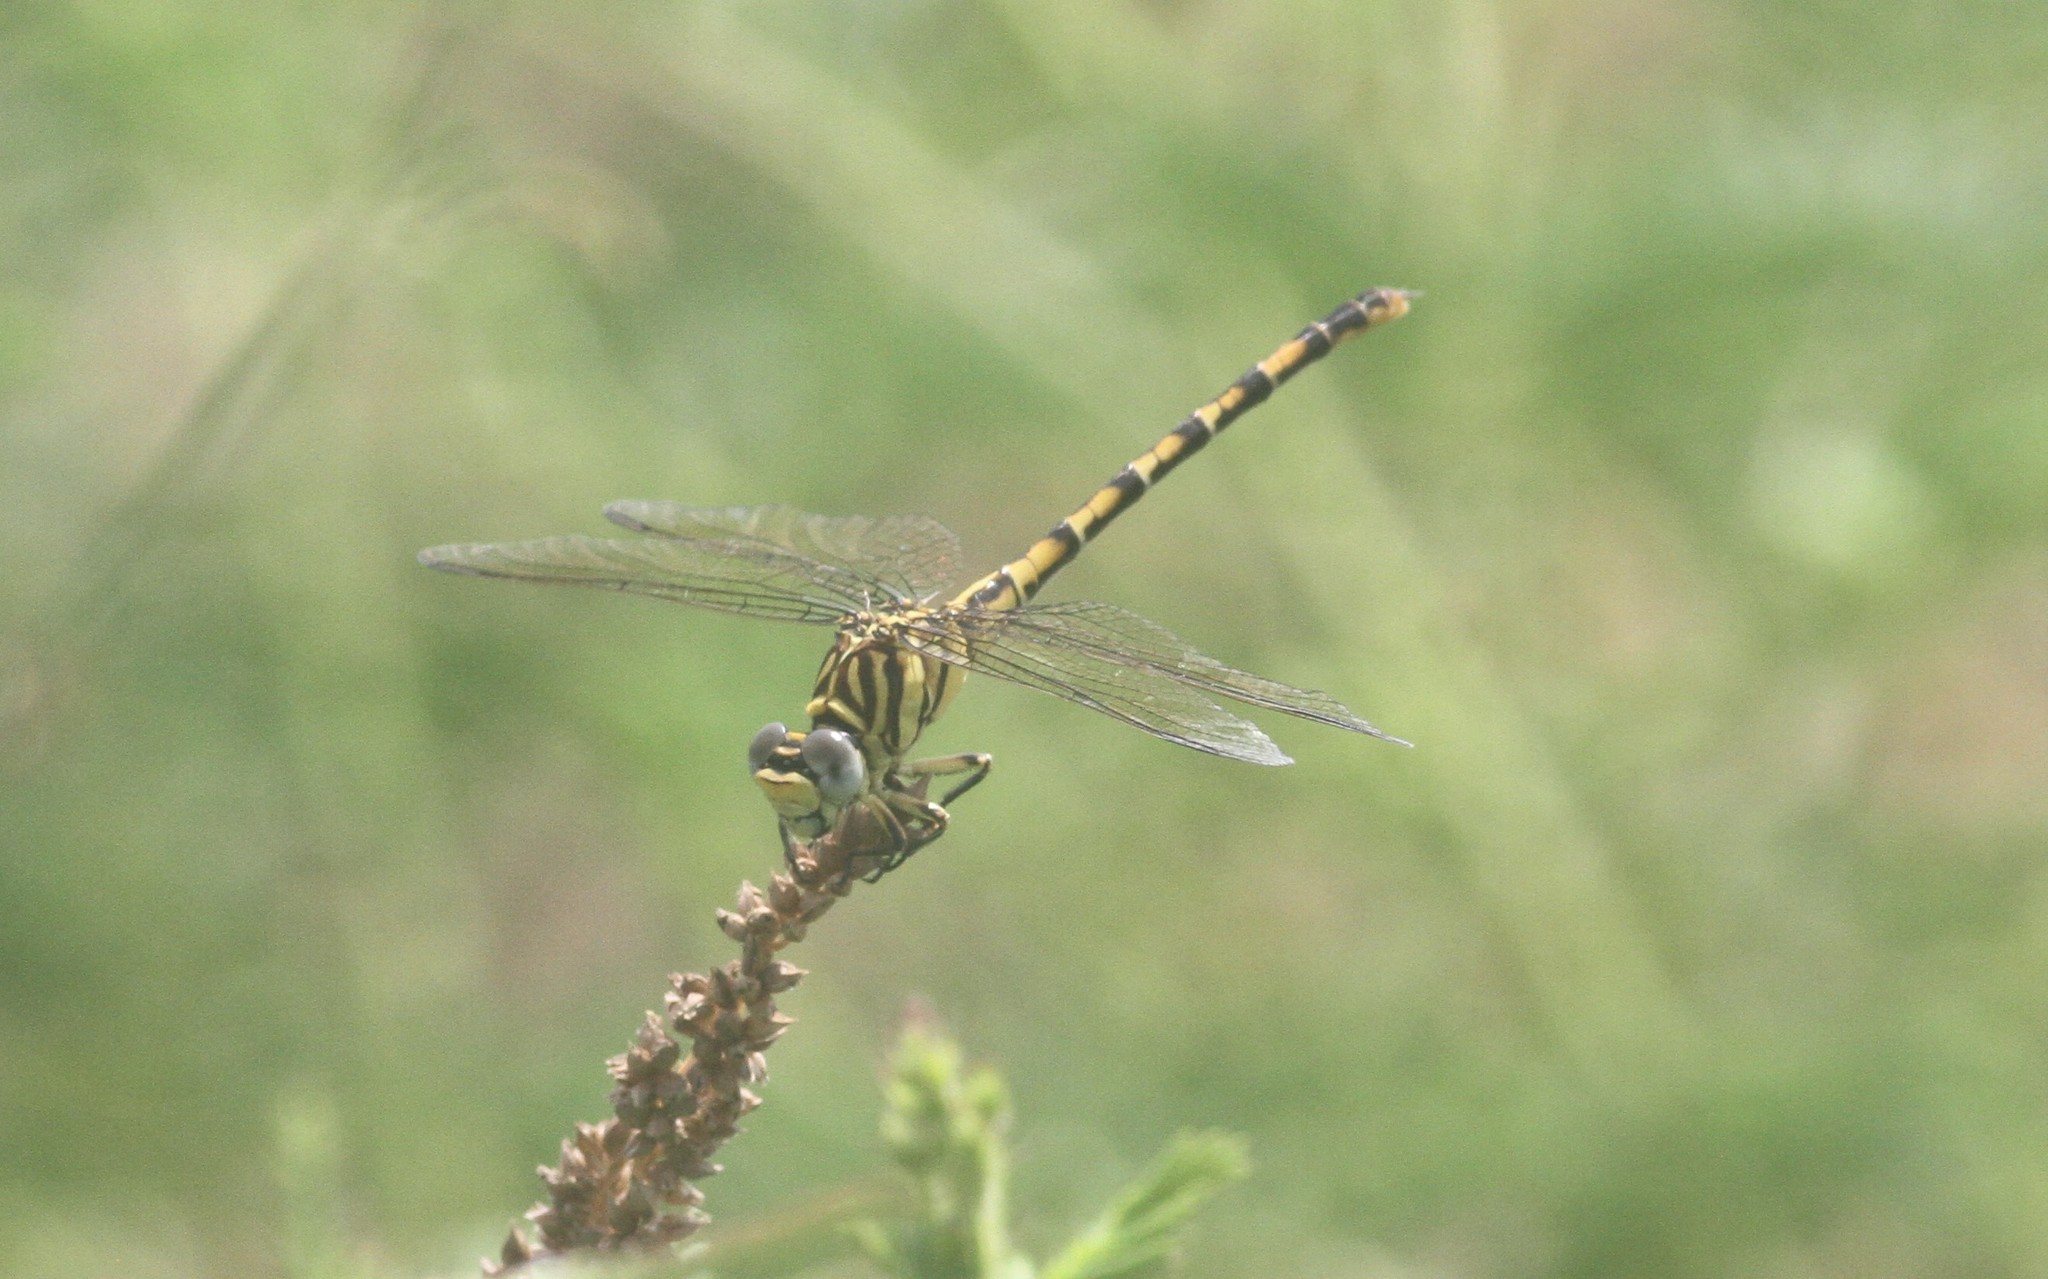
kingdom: Animalia
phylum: Arthropoda
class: Insecta
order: Odonata
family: Gomphidae
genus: Paragomphus
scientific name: Paragomphus lineatus
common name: Lined hooktail
